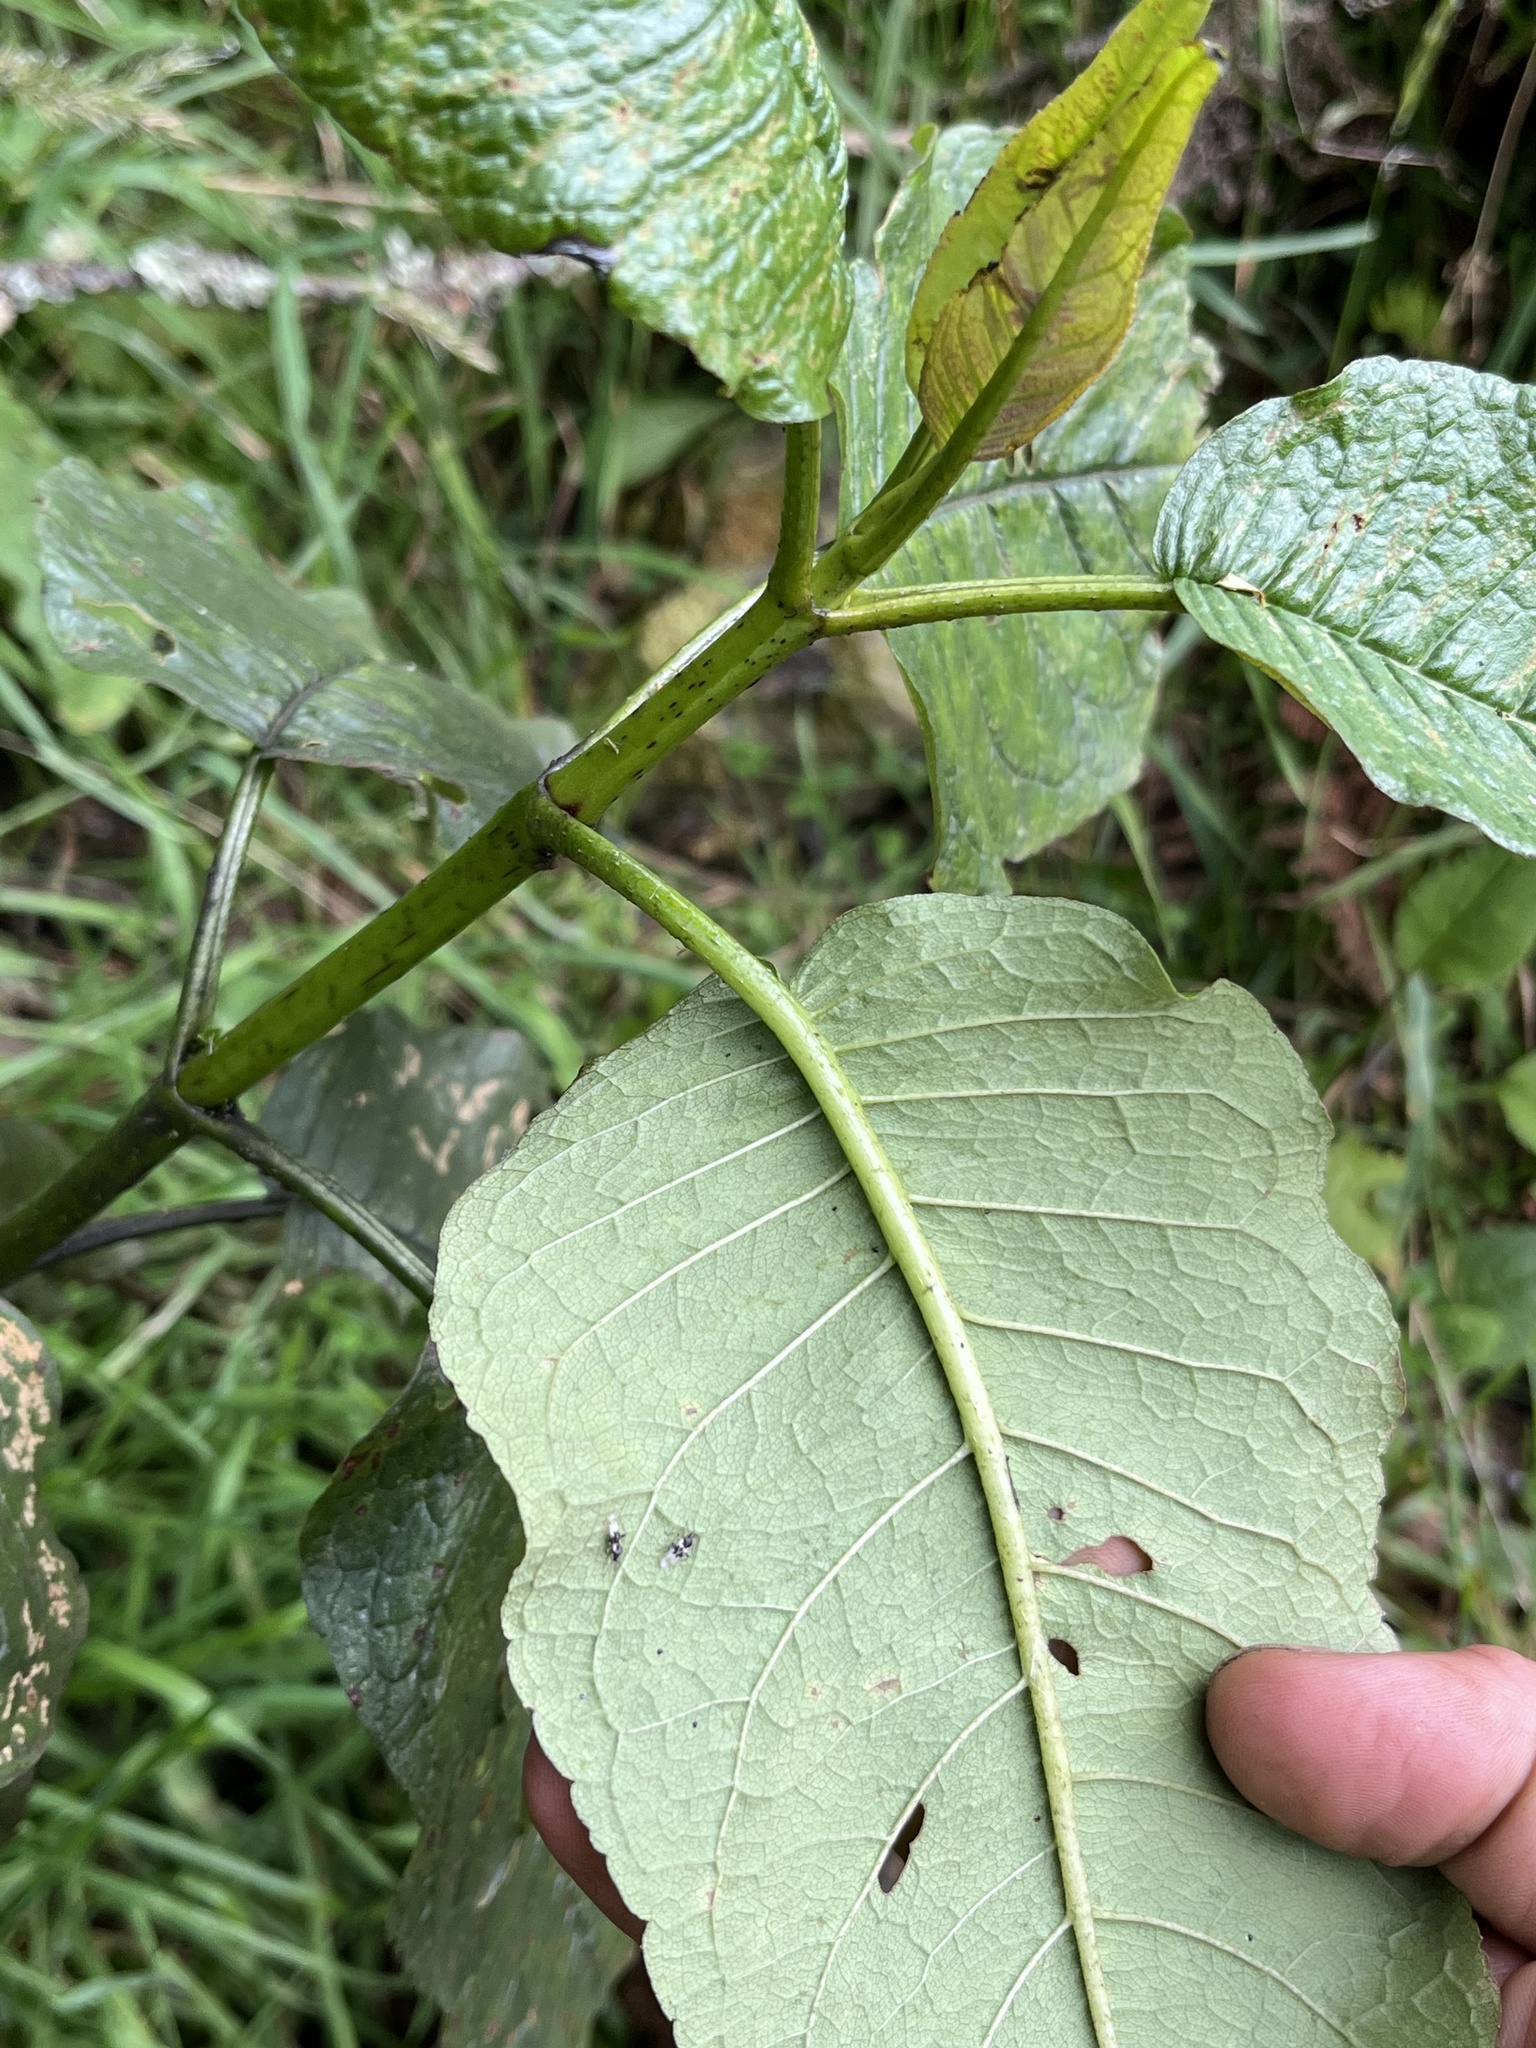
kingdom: Plantae
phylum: Tracheophyta
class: Magnoliopsida
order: Asterales
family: Asteraceae
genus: Ageratina
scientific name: Ageratina ampla
